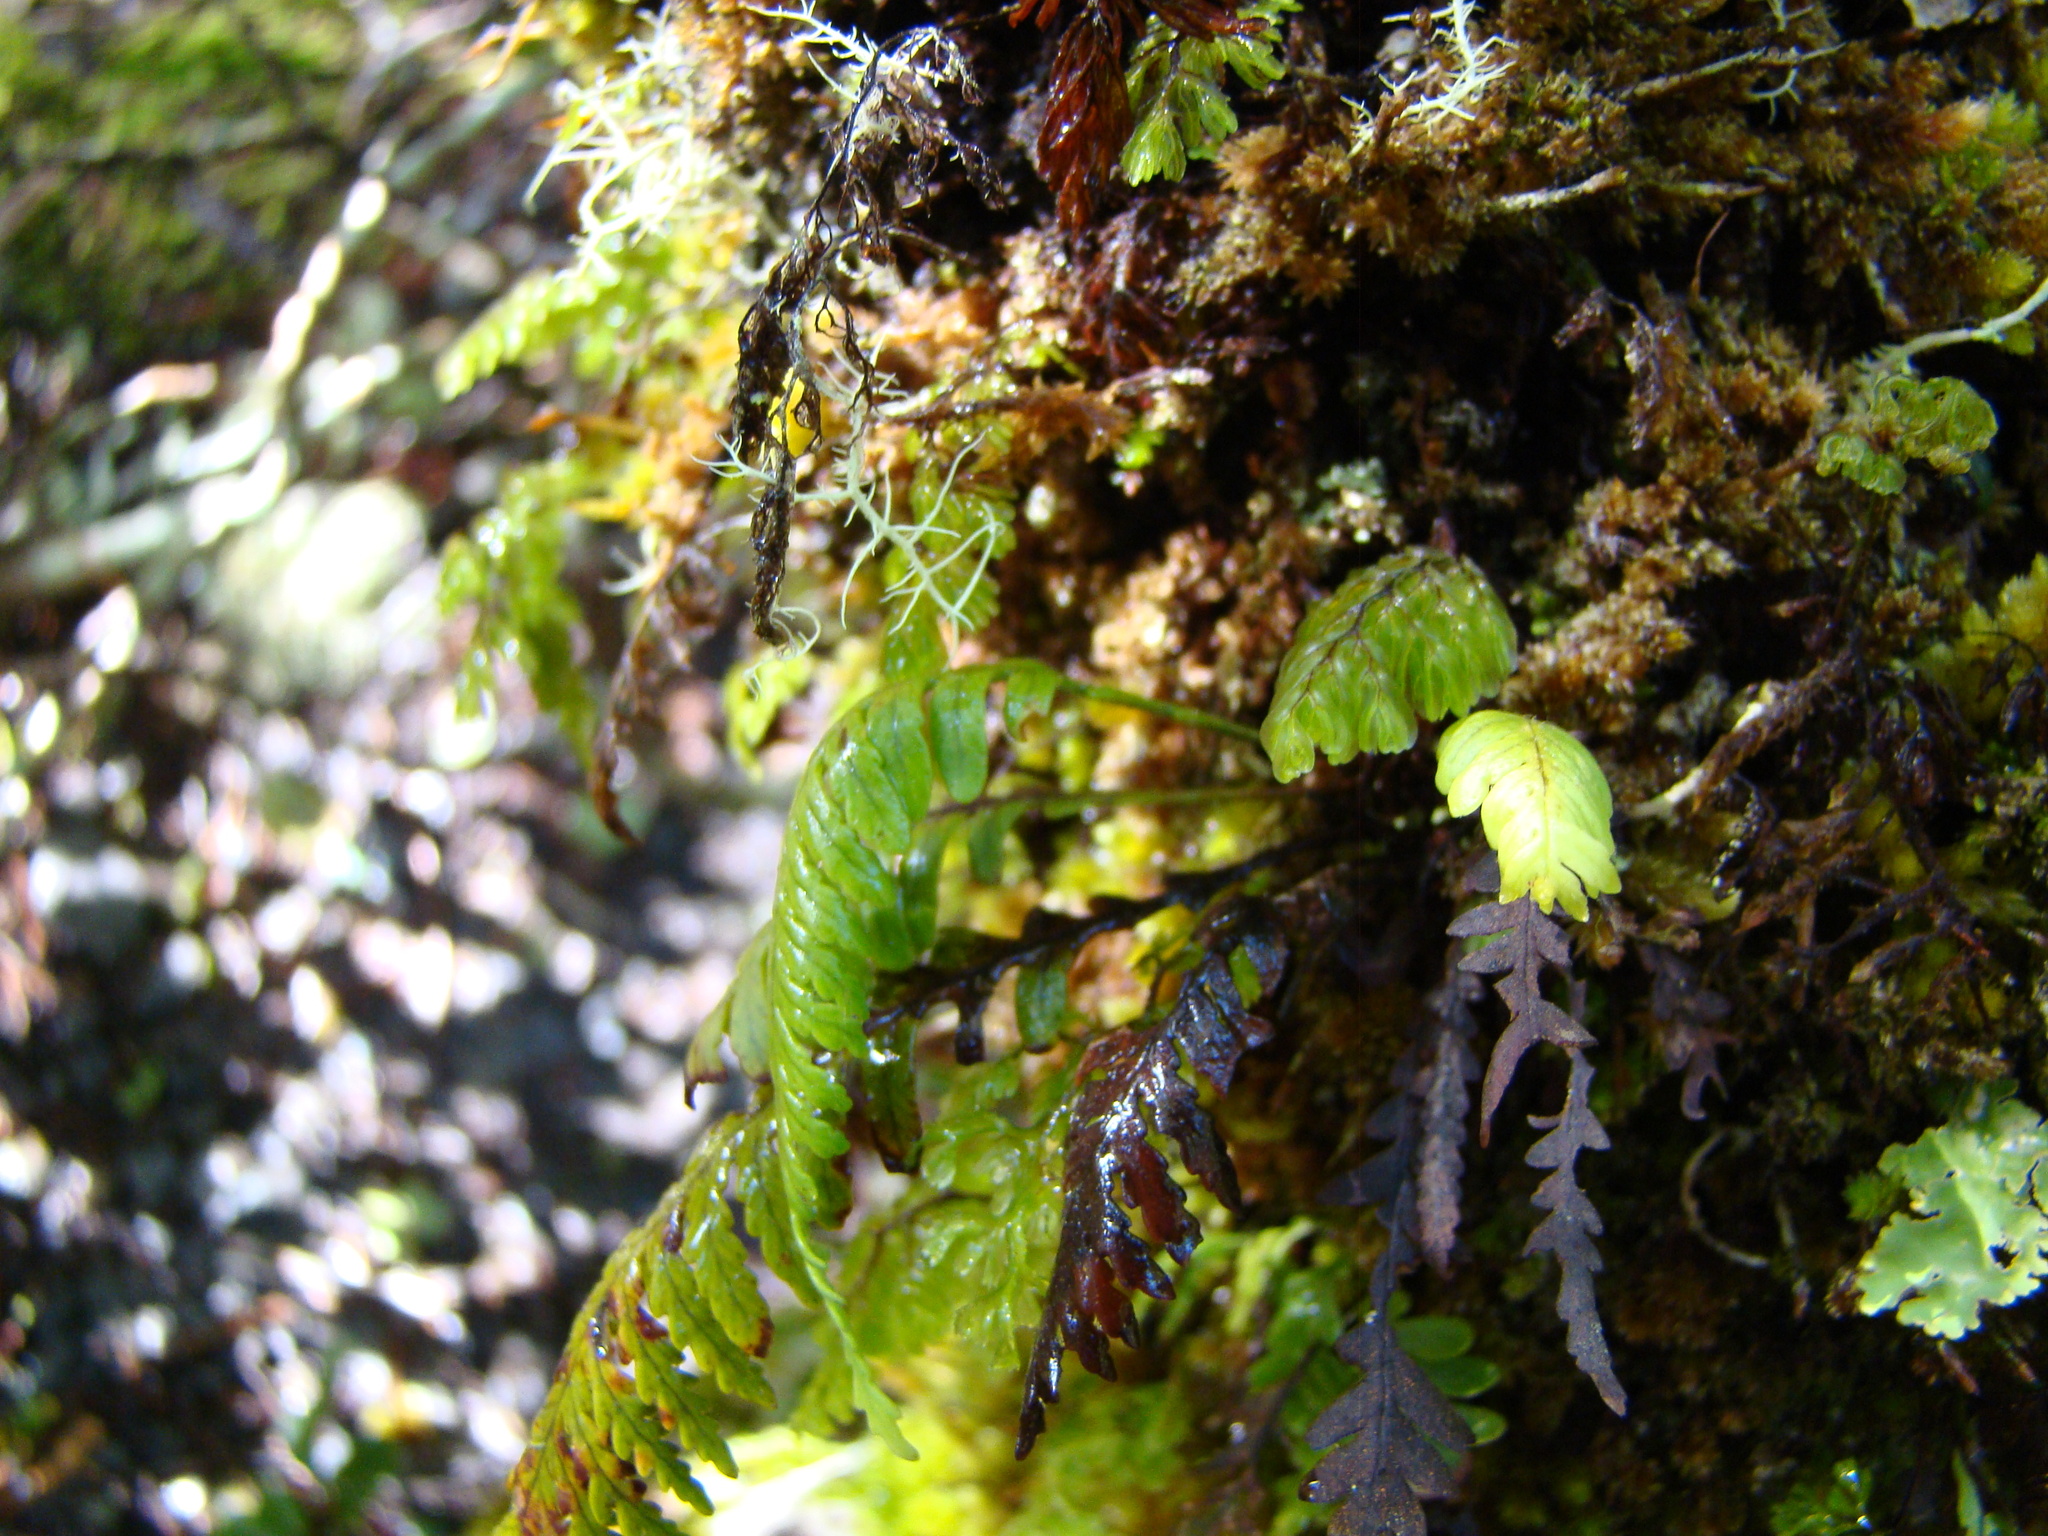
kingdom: Plantae
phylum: Tracheophyta
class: Polypodiopsida
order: Polypodiales
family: Polypodiaceae
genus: Notogrammitis
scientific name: Notogrammitis heterophylla
